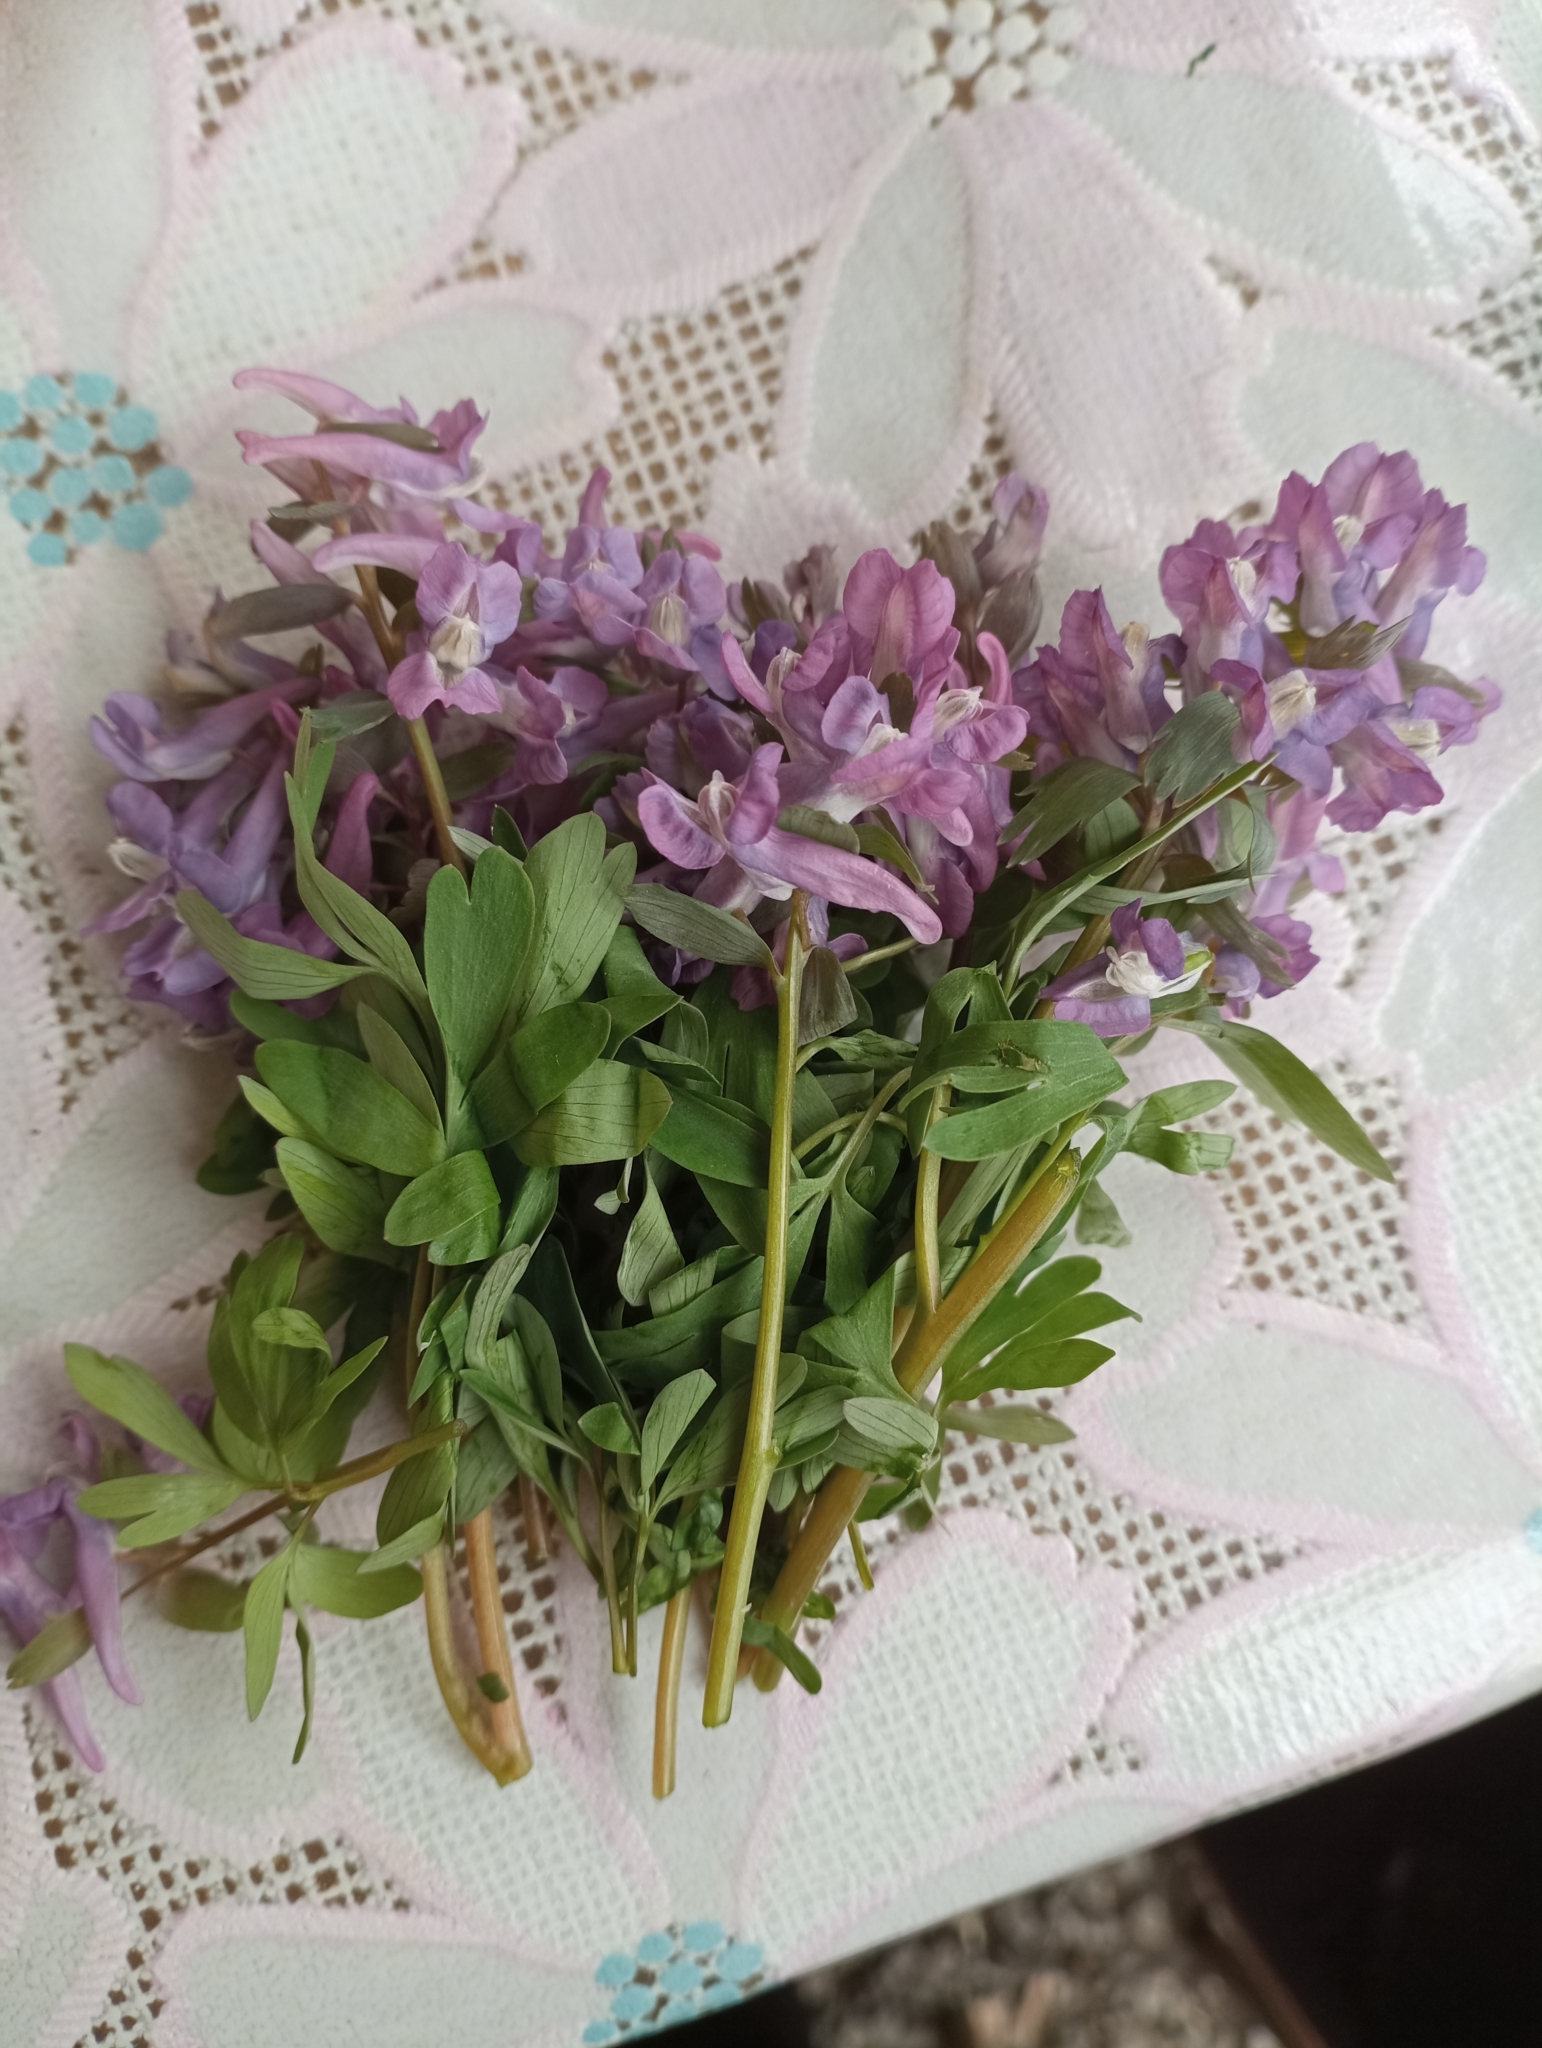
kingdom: Plantae
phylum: Tracheophyta
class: Magnoliopsida
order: Ranunculales
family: Papaveraceae
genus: Corydalis
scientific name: Corydalis solida
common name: Bird-in-a-bush
